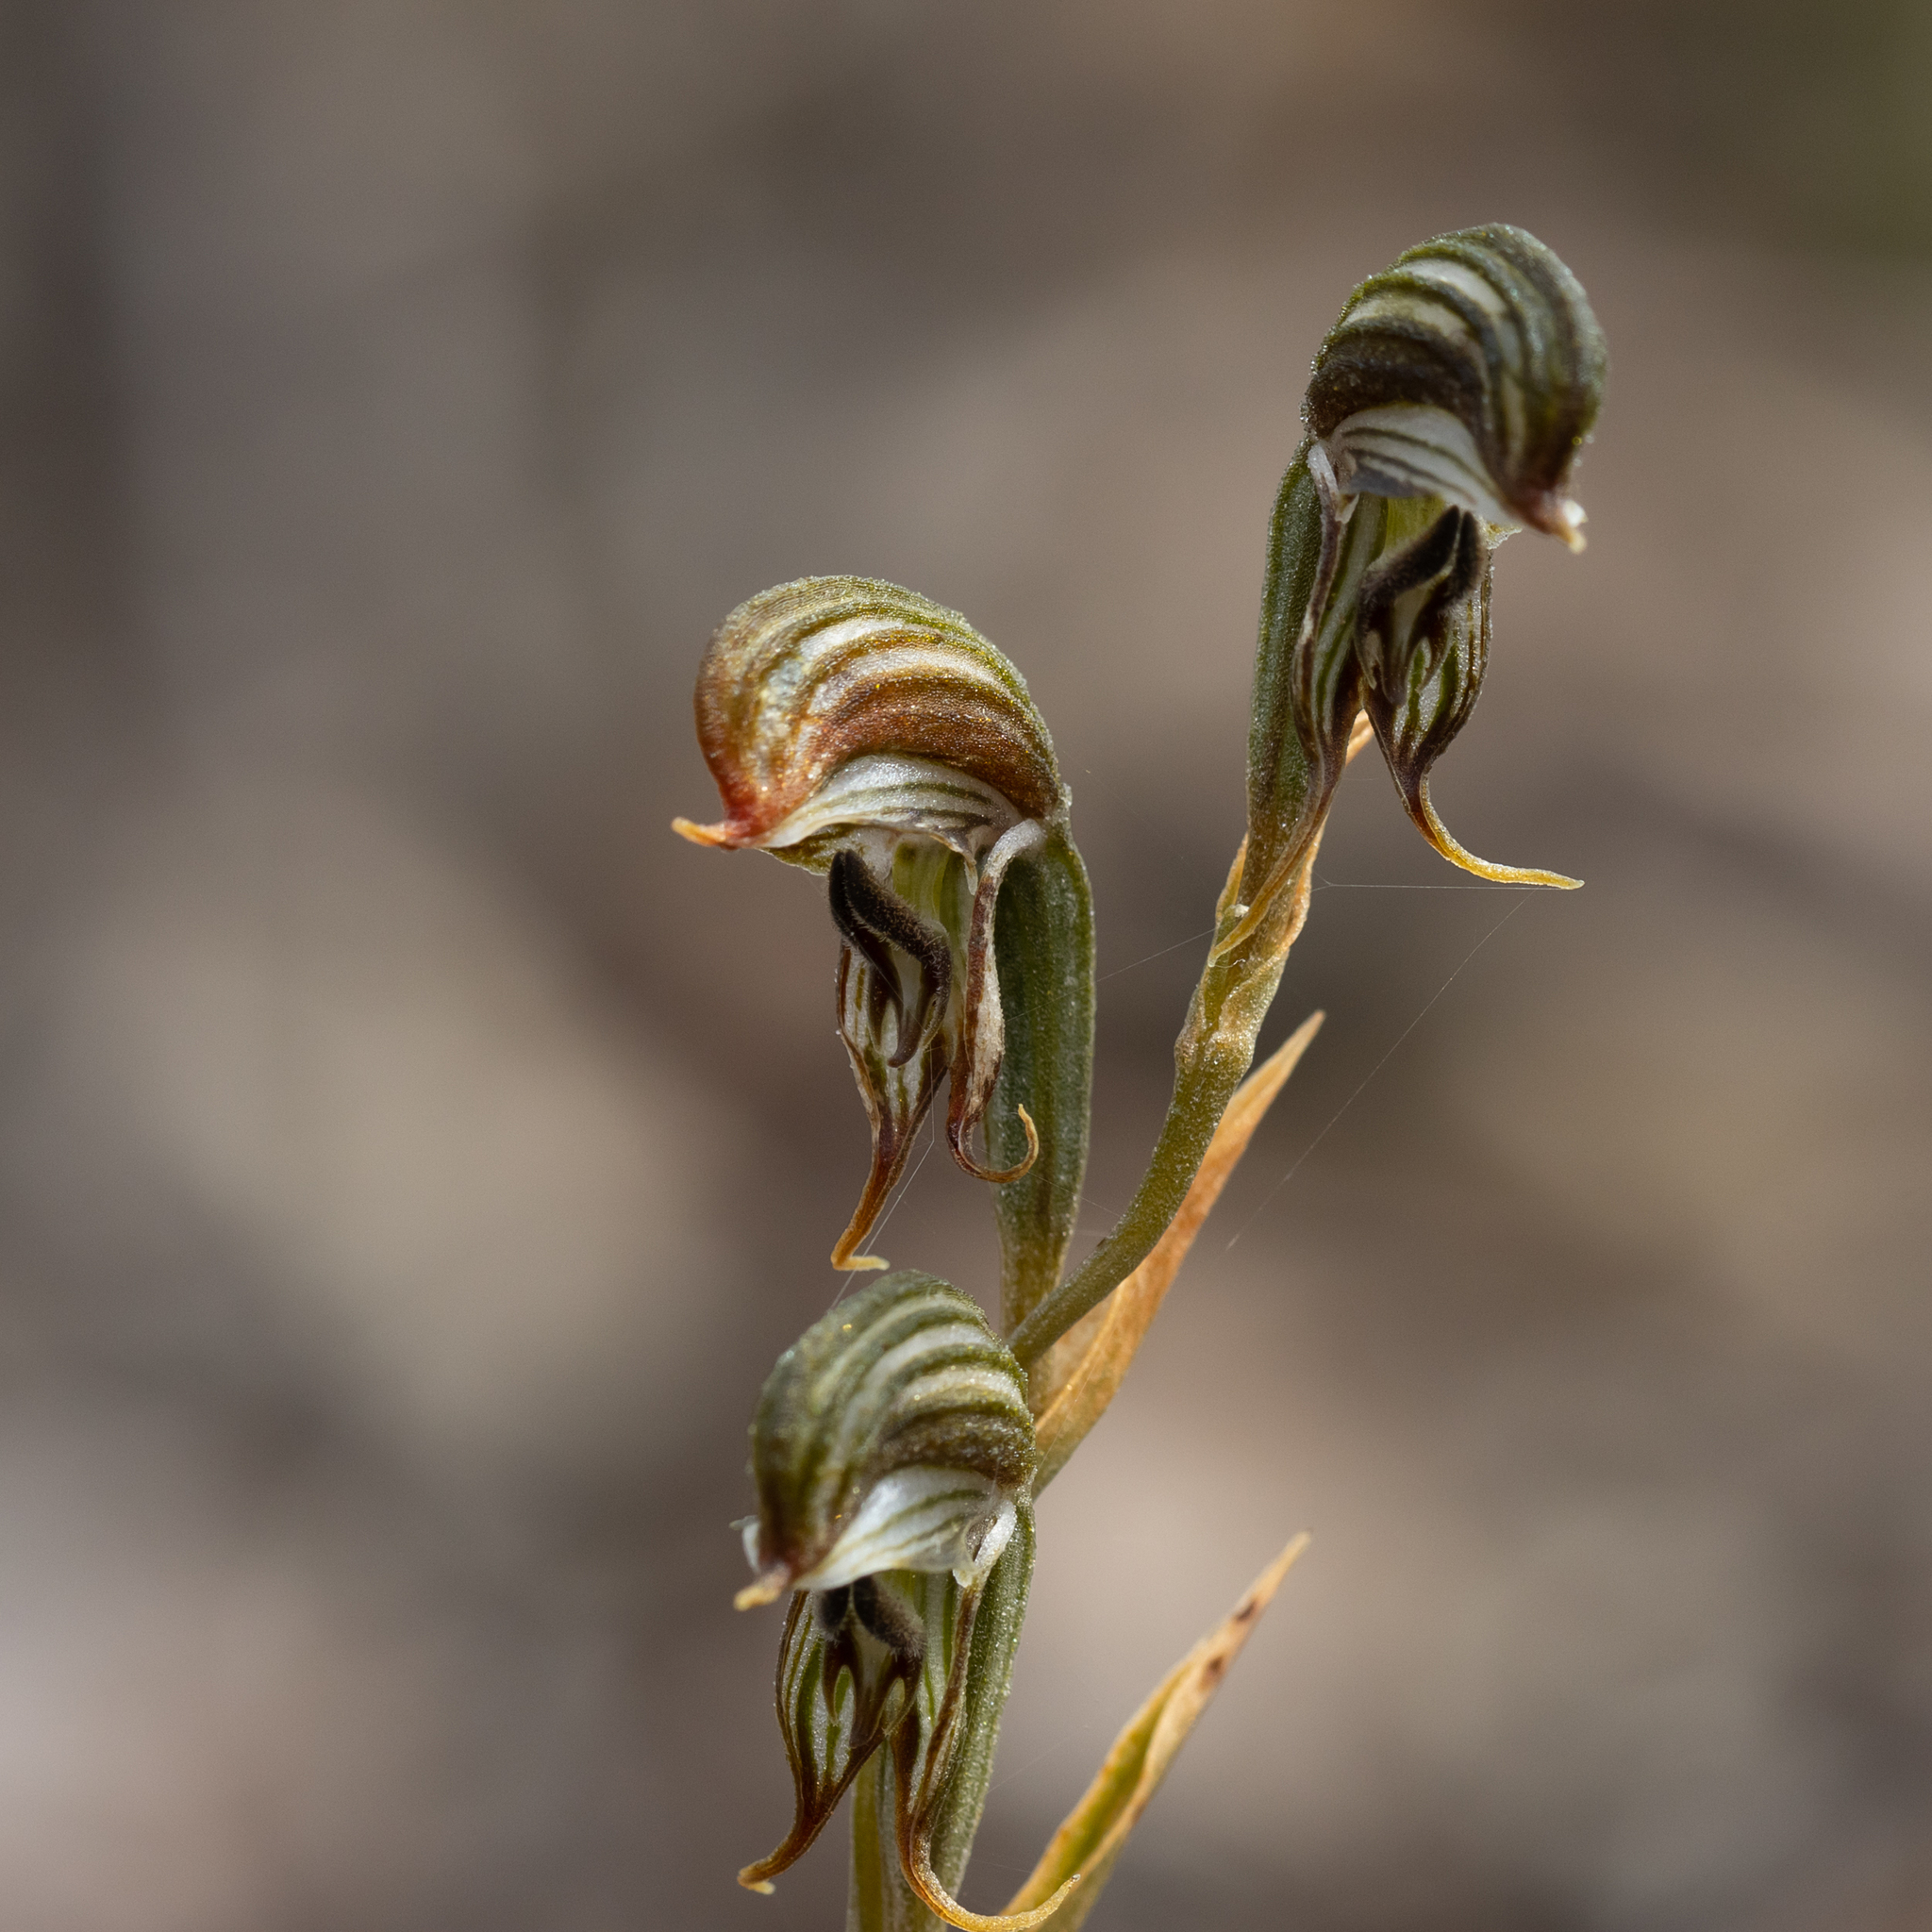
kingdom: Plantae
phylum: Tracheophyta
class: Liliopsida
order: Asparagales
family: Orchidaceae
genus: Pterostylis
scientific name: Pterostylis
